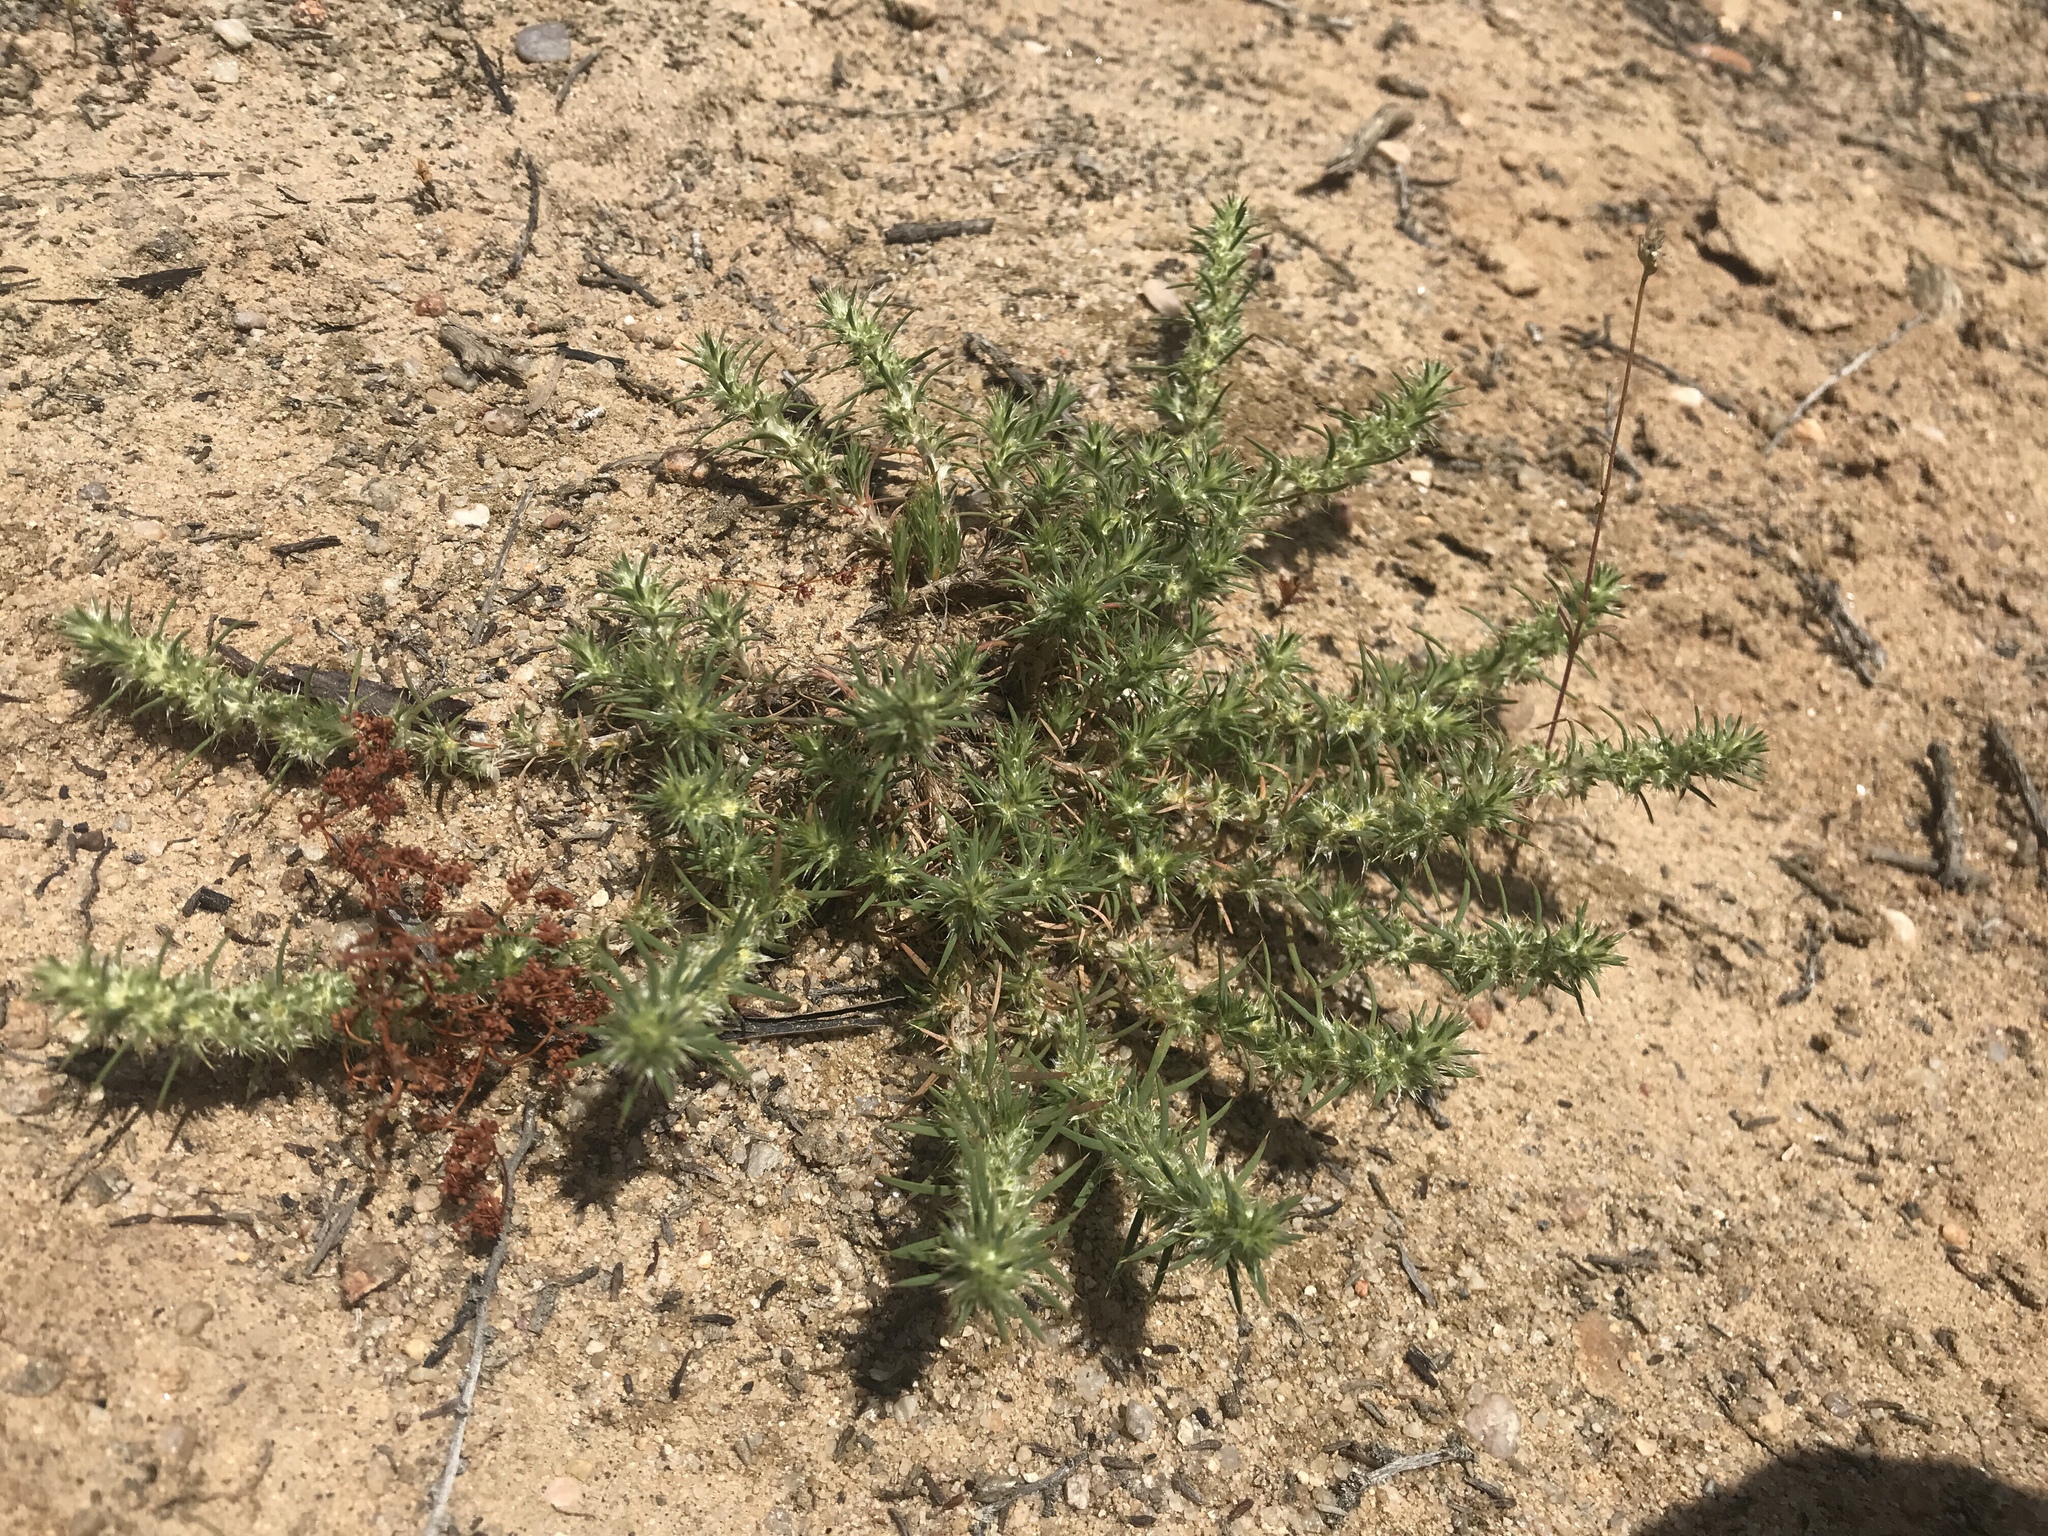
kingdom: Plantae
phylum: Tracheophyta
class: Magnoliopsida
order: Caryophyllales
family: Caryophyllaceae
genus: Cardionema
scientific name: Cardionema ramosissima
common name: Sandcarpet
